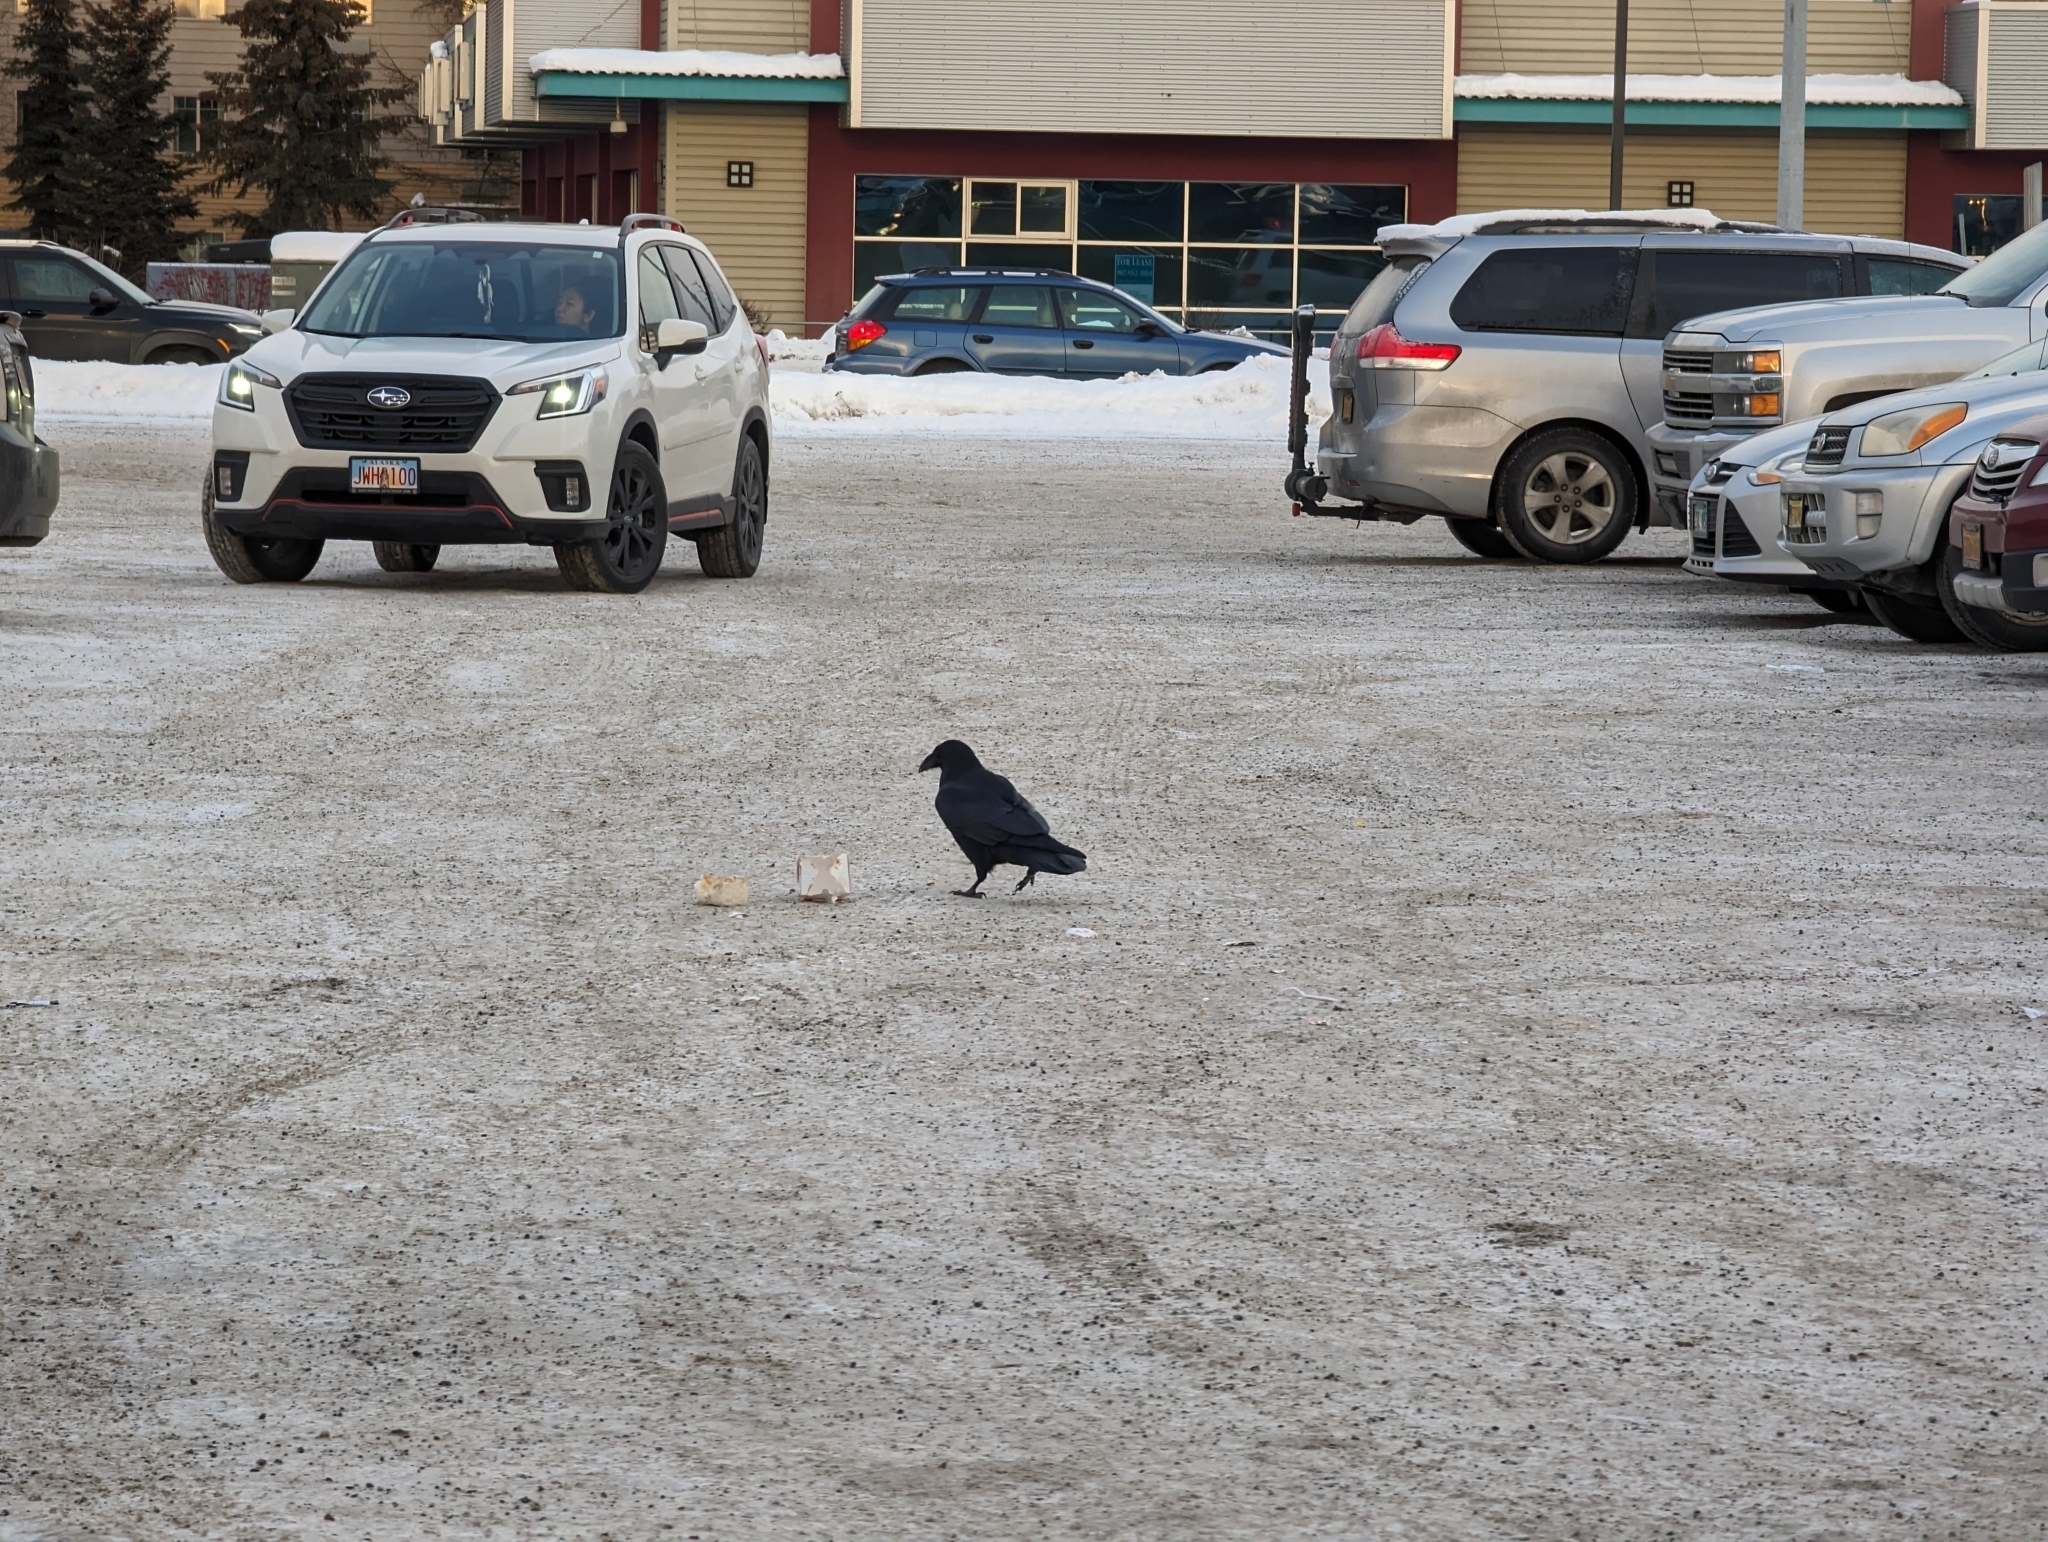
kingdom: Animalia
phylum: Chordata
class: Aves
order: Passeriformes
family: Corvidae
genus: Corvus
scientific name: Corvus corax
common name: Common raven
